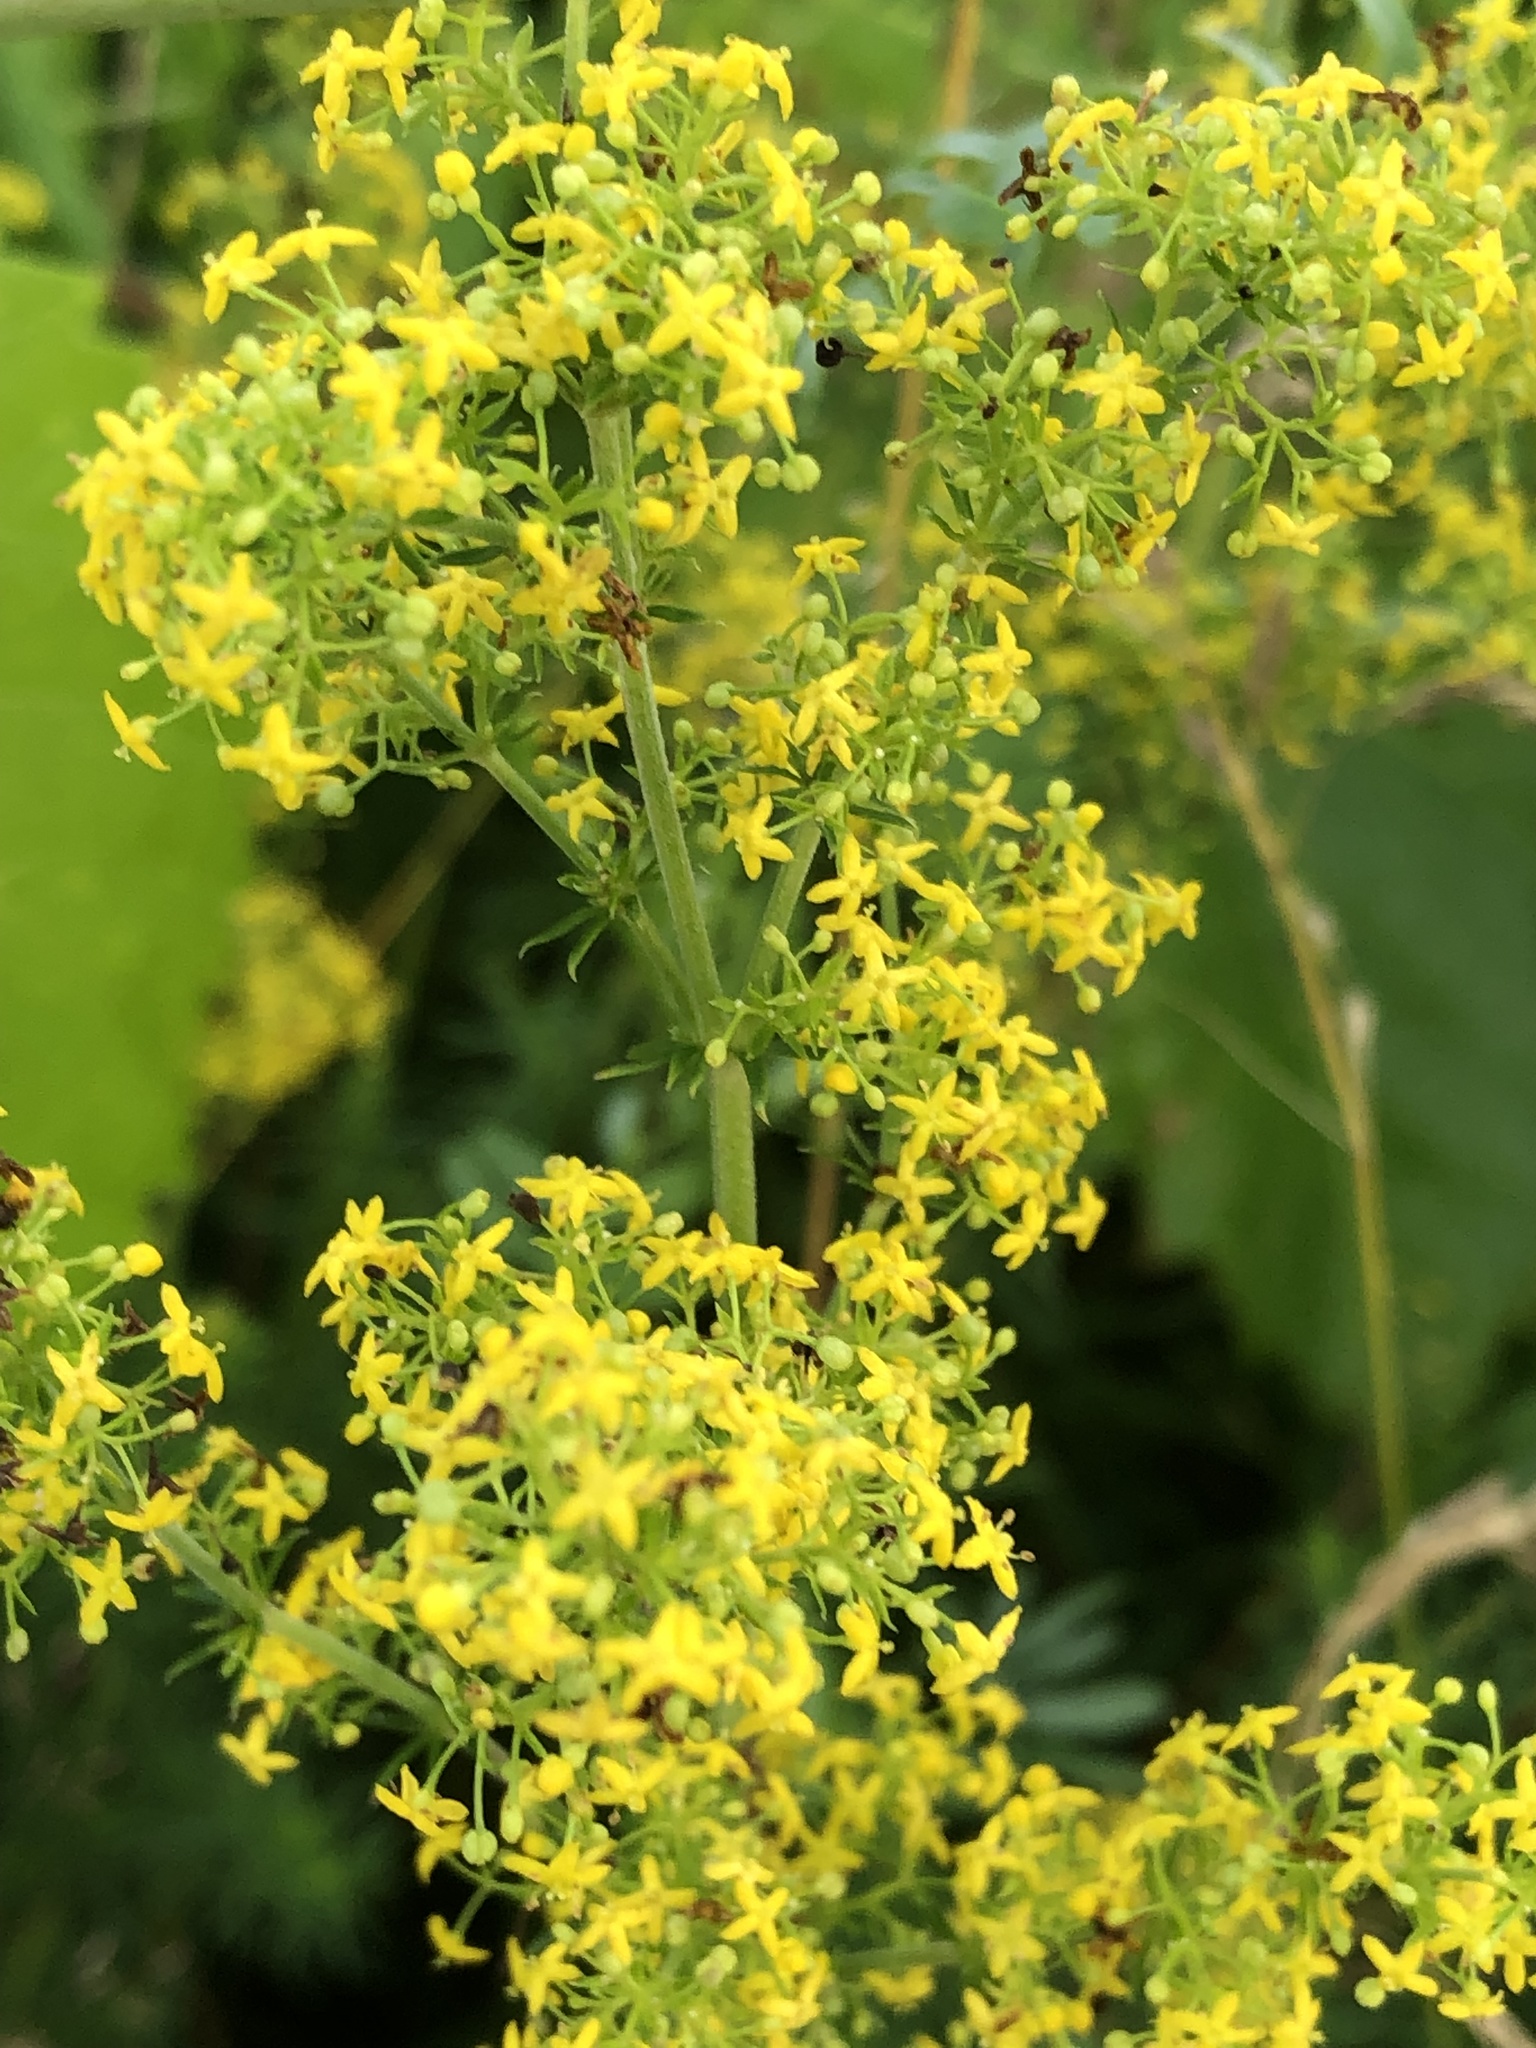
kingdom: Plantae
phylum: Tracheophyta
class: Magnoliopsida
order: Gentianales
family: Rubiaceae
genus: Galium
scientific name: Galium verum
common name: Lady's bedstraw
